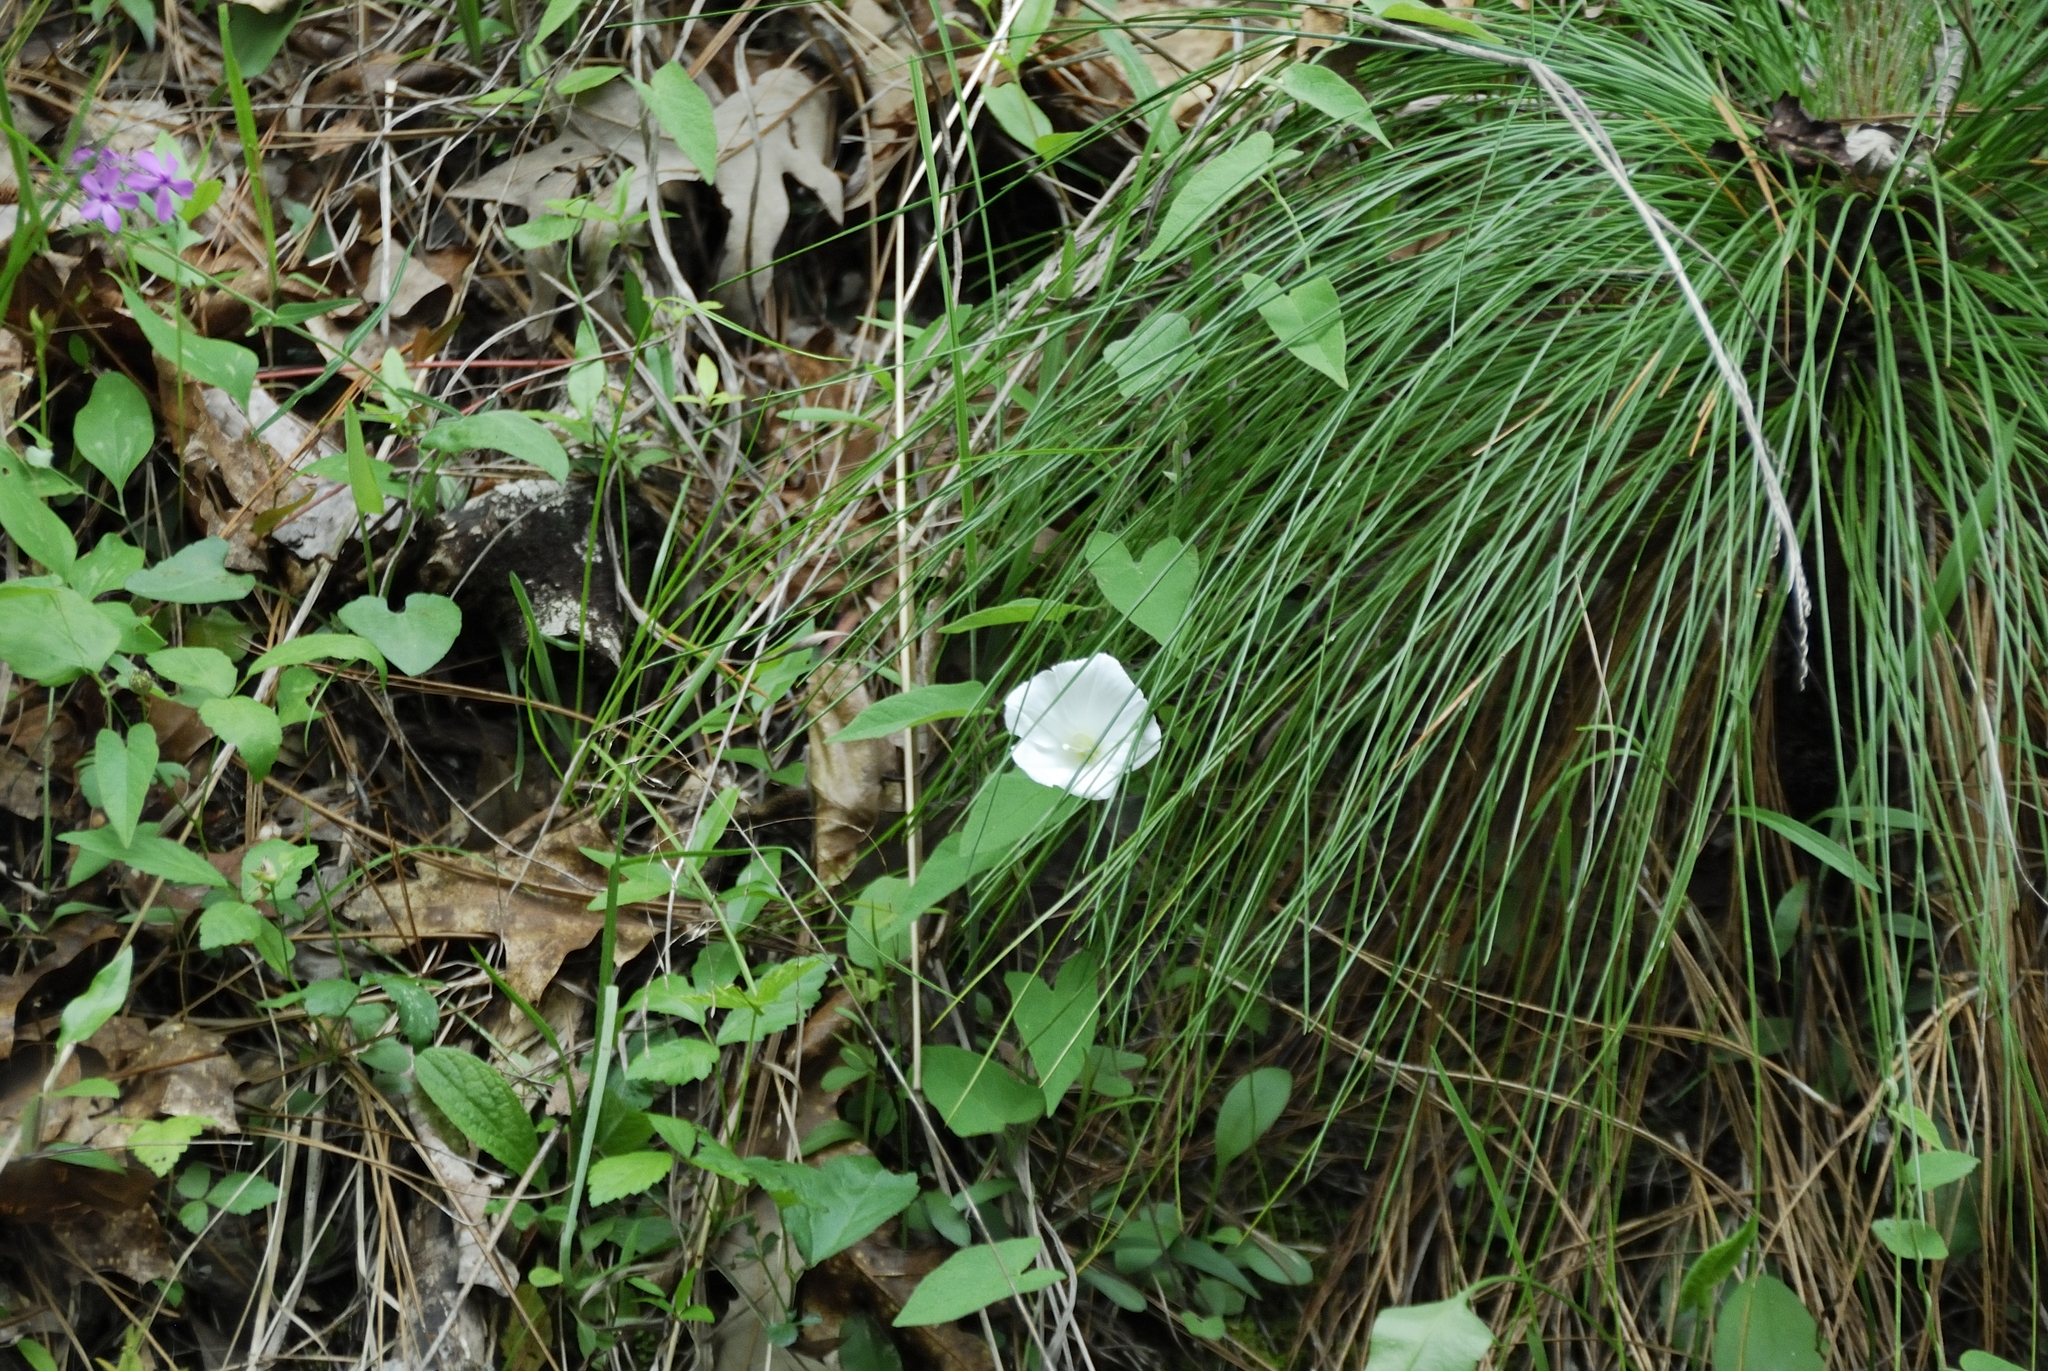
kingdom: Plantae
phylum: Tracheophyta
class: Magnoliopsida
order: Solanales
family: Convolvulaceae
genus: Calystegia
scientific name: Calystegia catesbeiana
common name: Catesby's false bindweed
